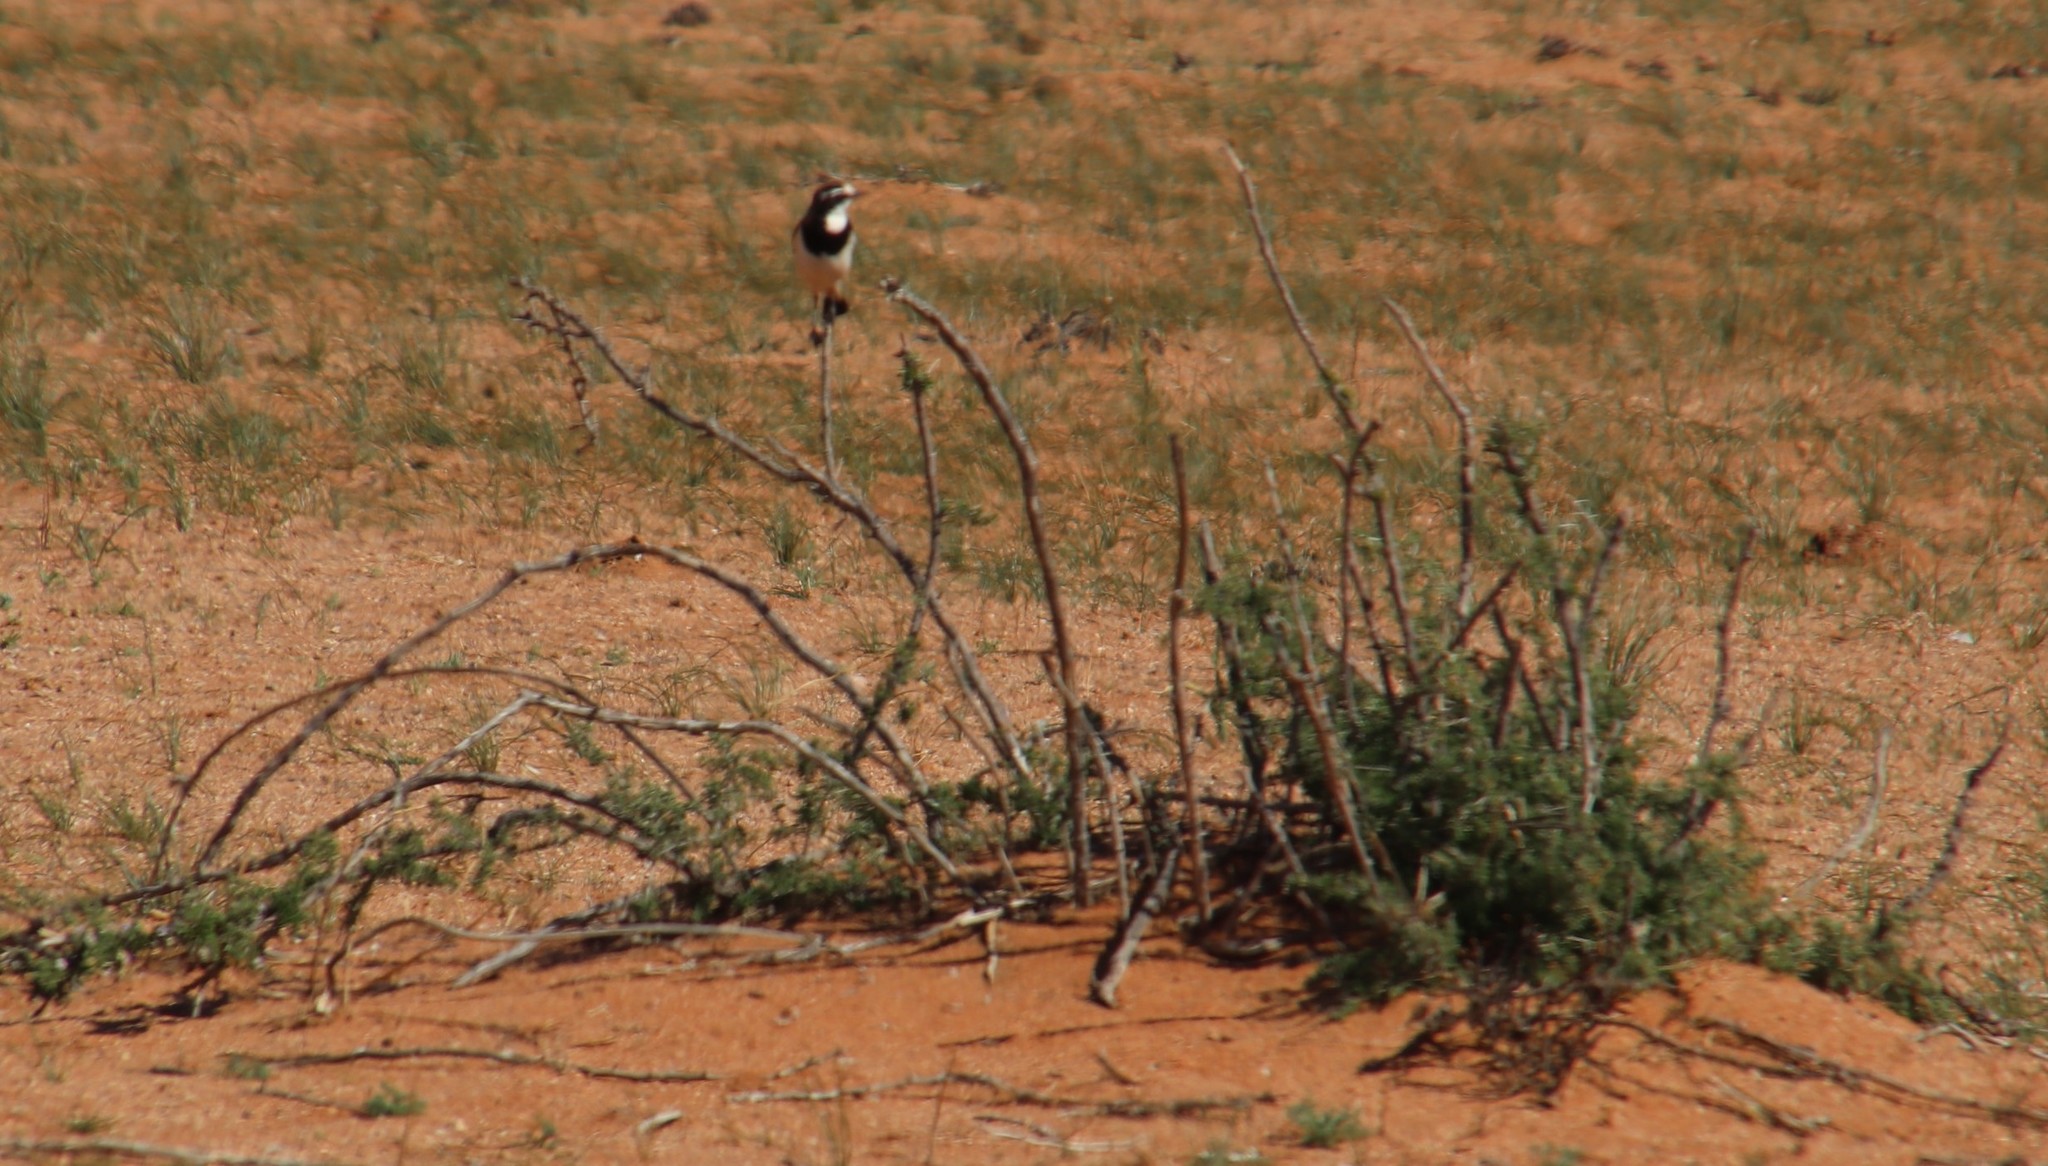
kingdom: Animalia
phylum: Chordata
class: Aves
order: Passeriformes
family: Muscicapidae
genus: Oenanthe
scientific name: Oenanthe pileata
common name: Capped wheatear
